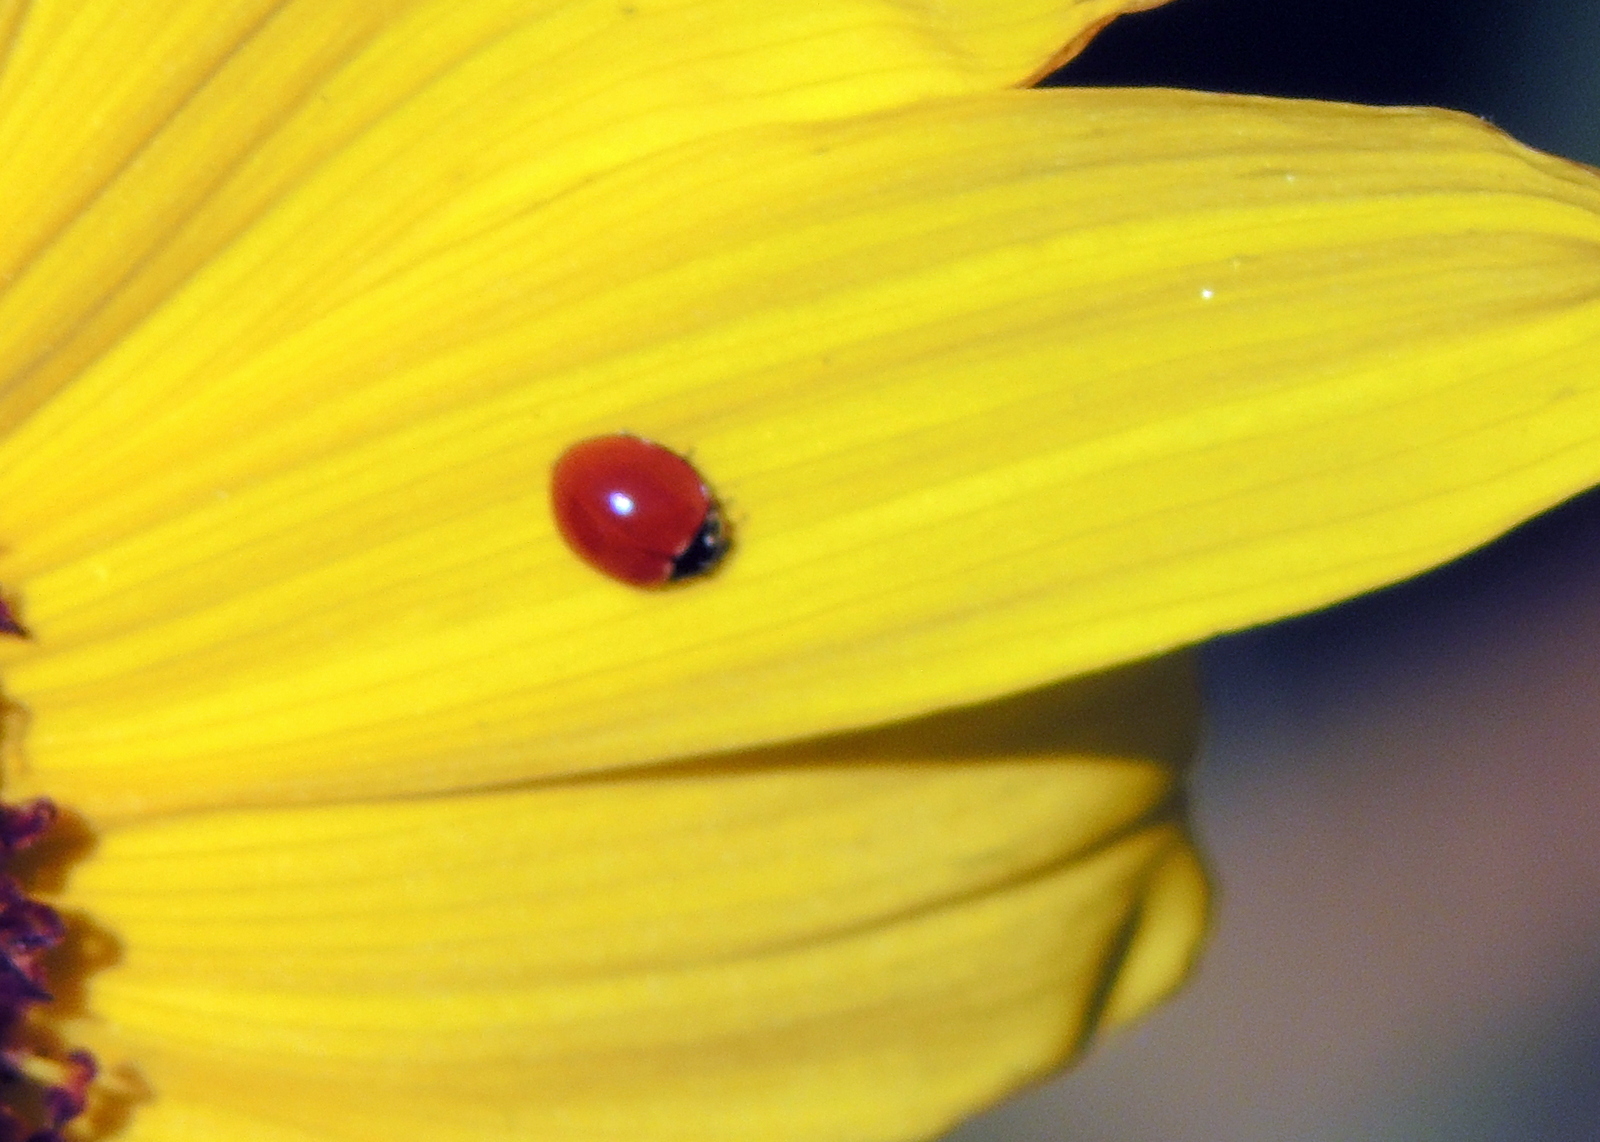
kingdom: Animalia
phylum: Arthropoda
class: Insecta
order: Coleoptera
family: Coccinellidae
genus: Cycloneda
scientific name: Cycloneda sanguinea
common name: Ladybird beetle
